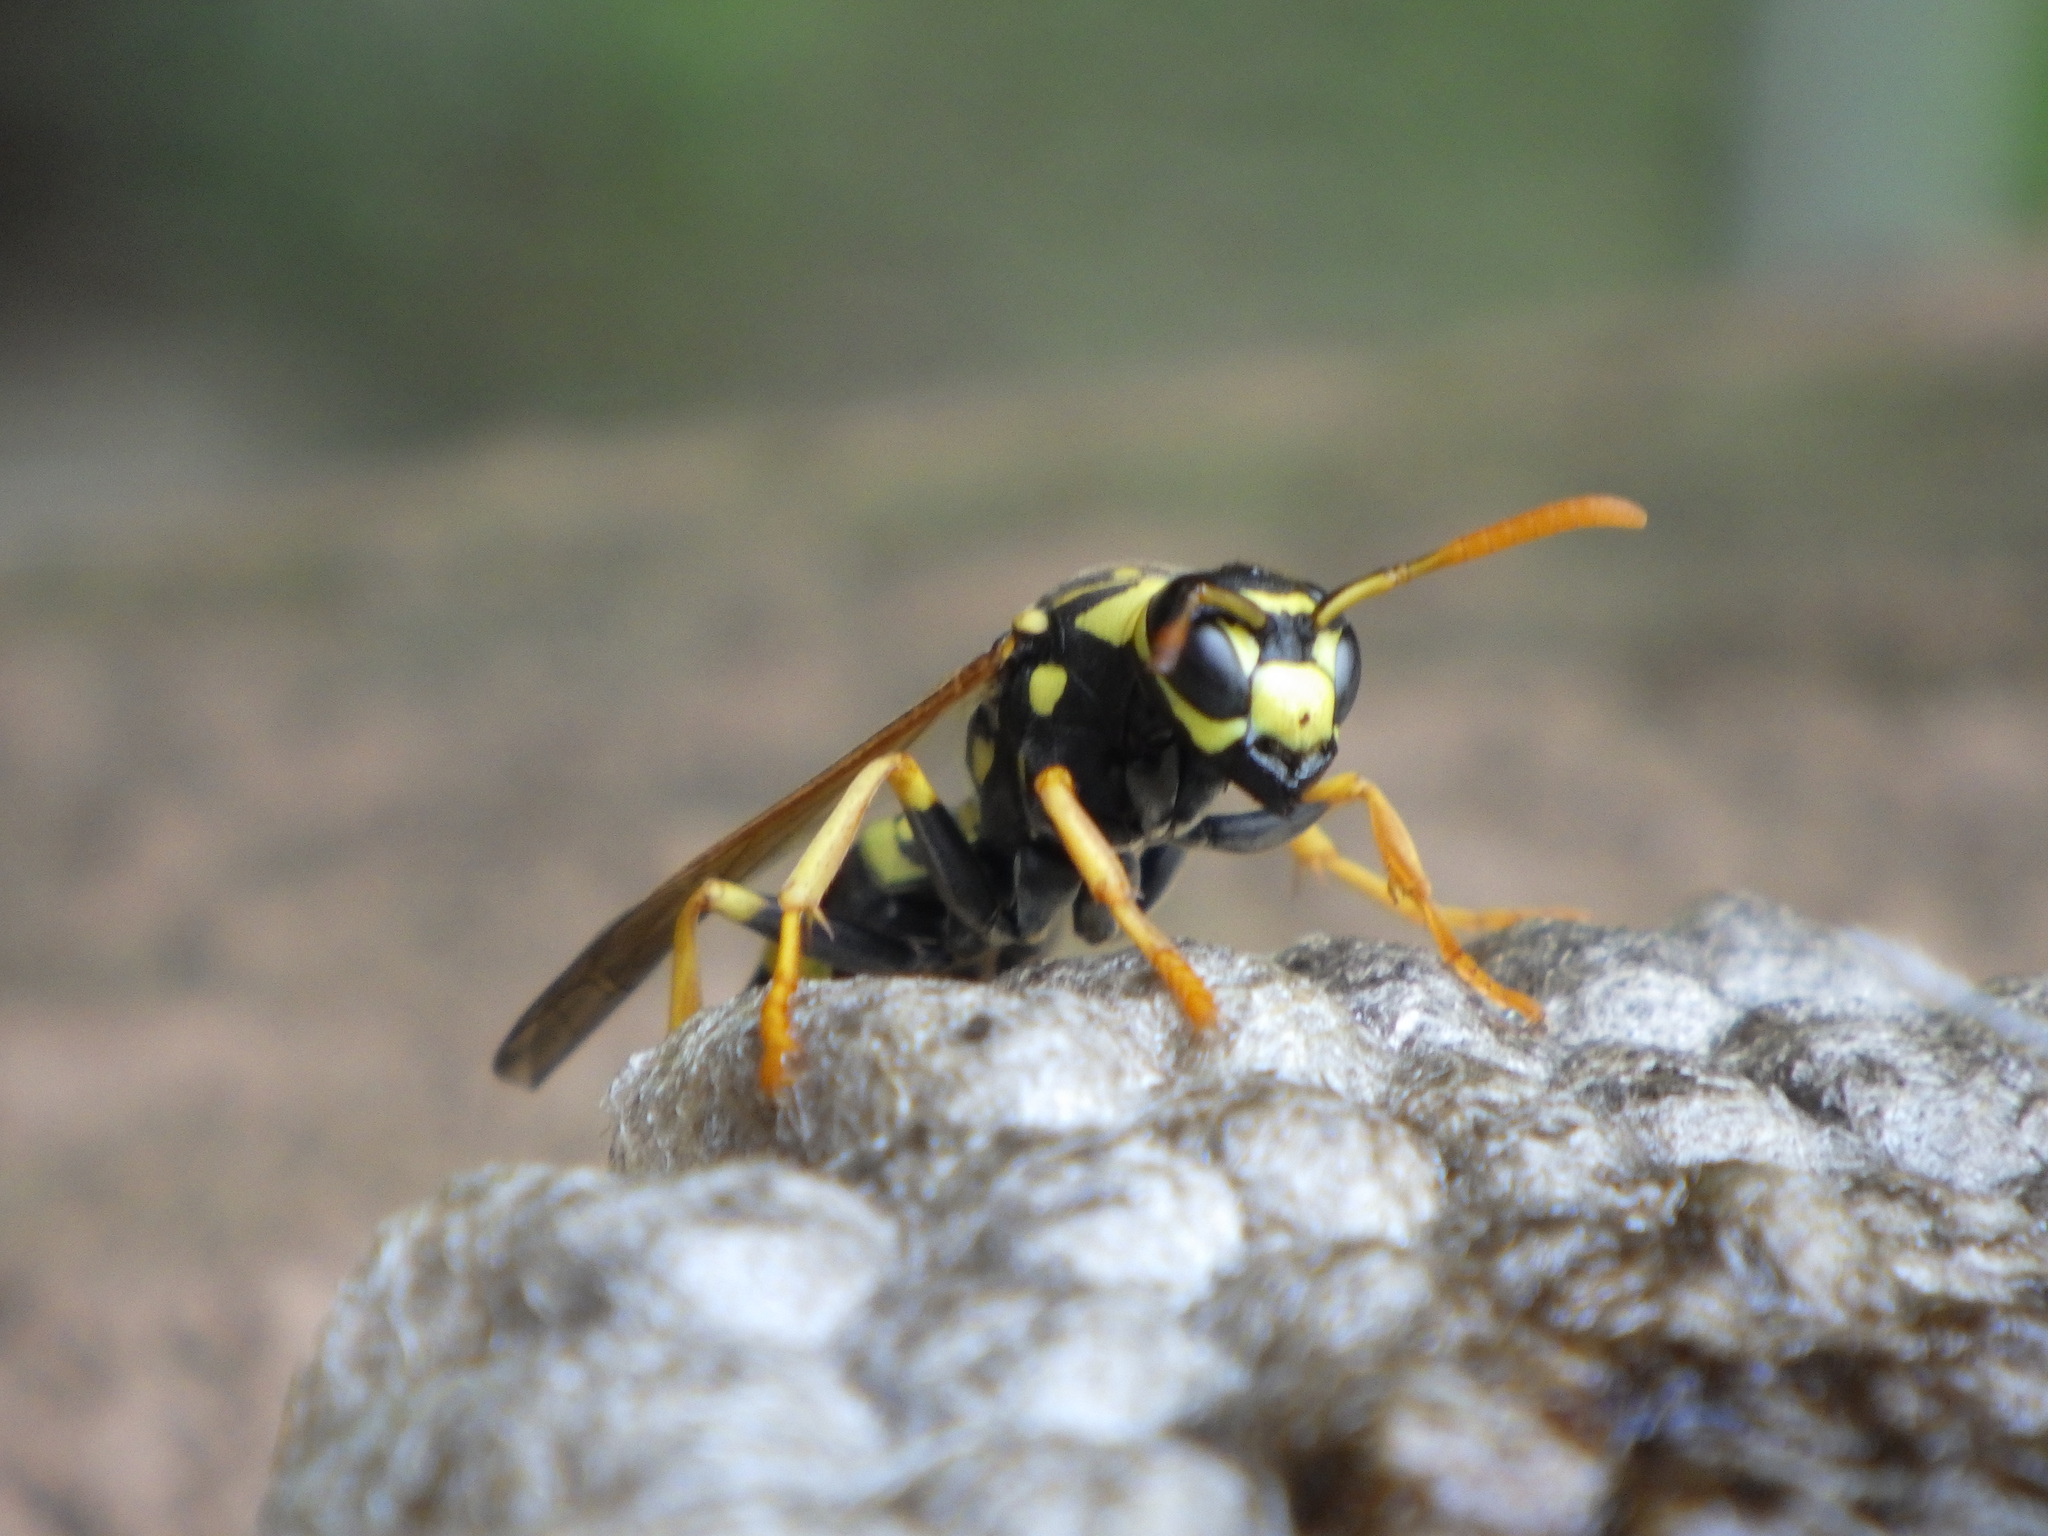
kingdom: Animalia
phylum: Arthropoda
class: Insecta
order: Hymenoptera
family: Eumenidae
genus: Polistes
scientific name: Polistes dominula
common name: Paper wasp
